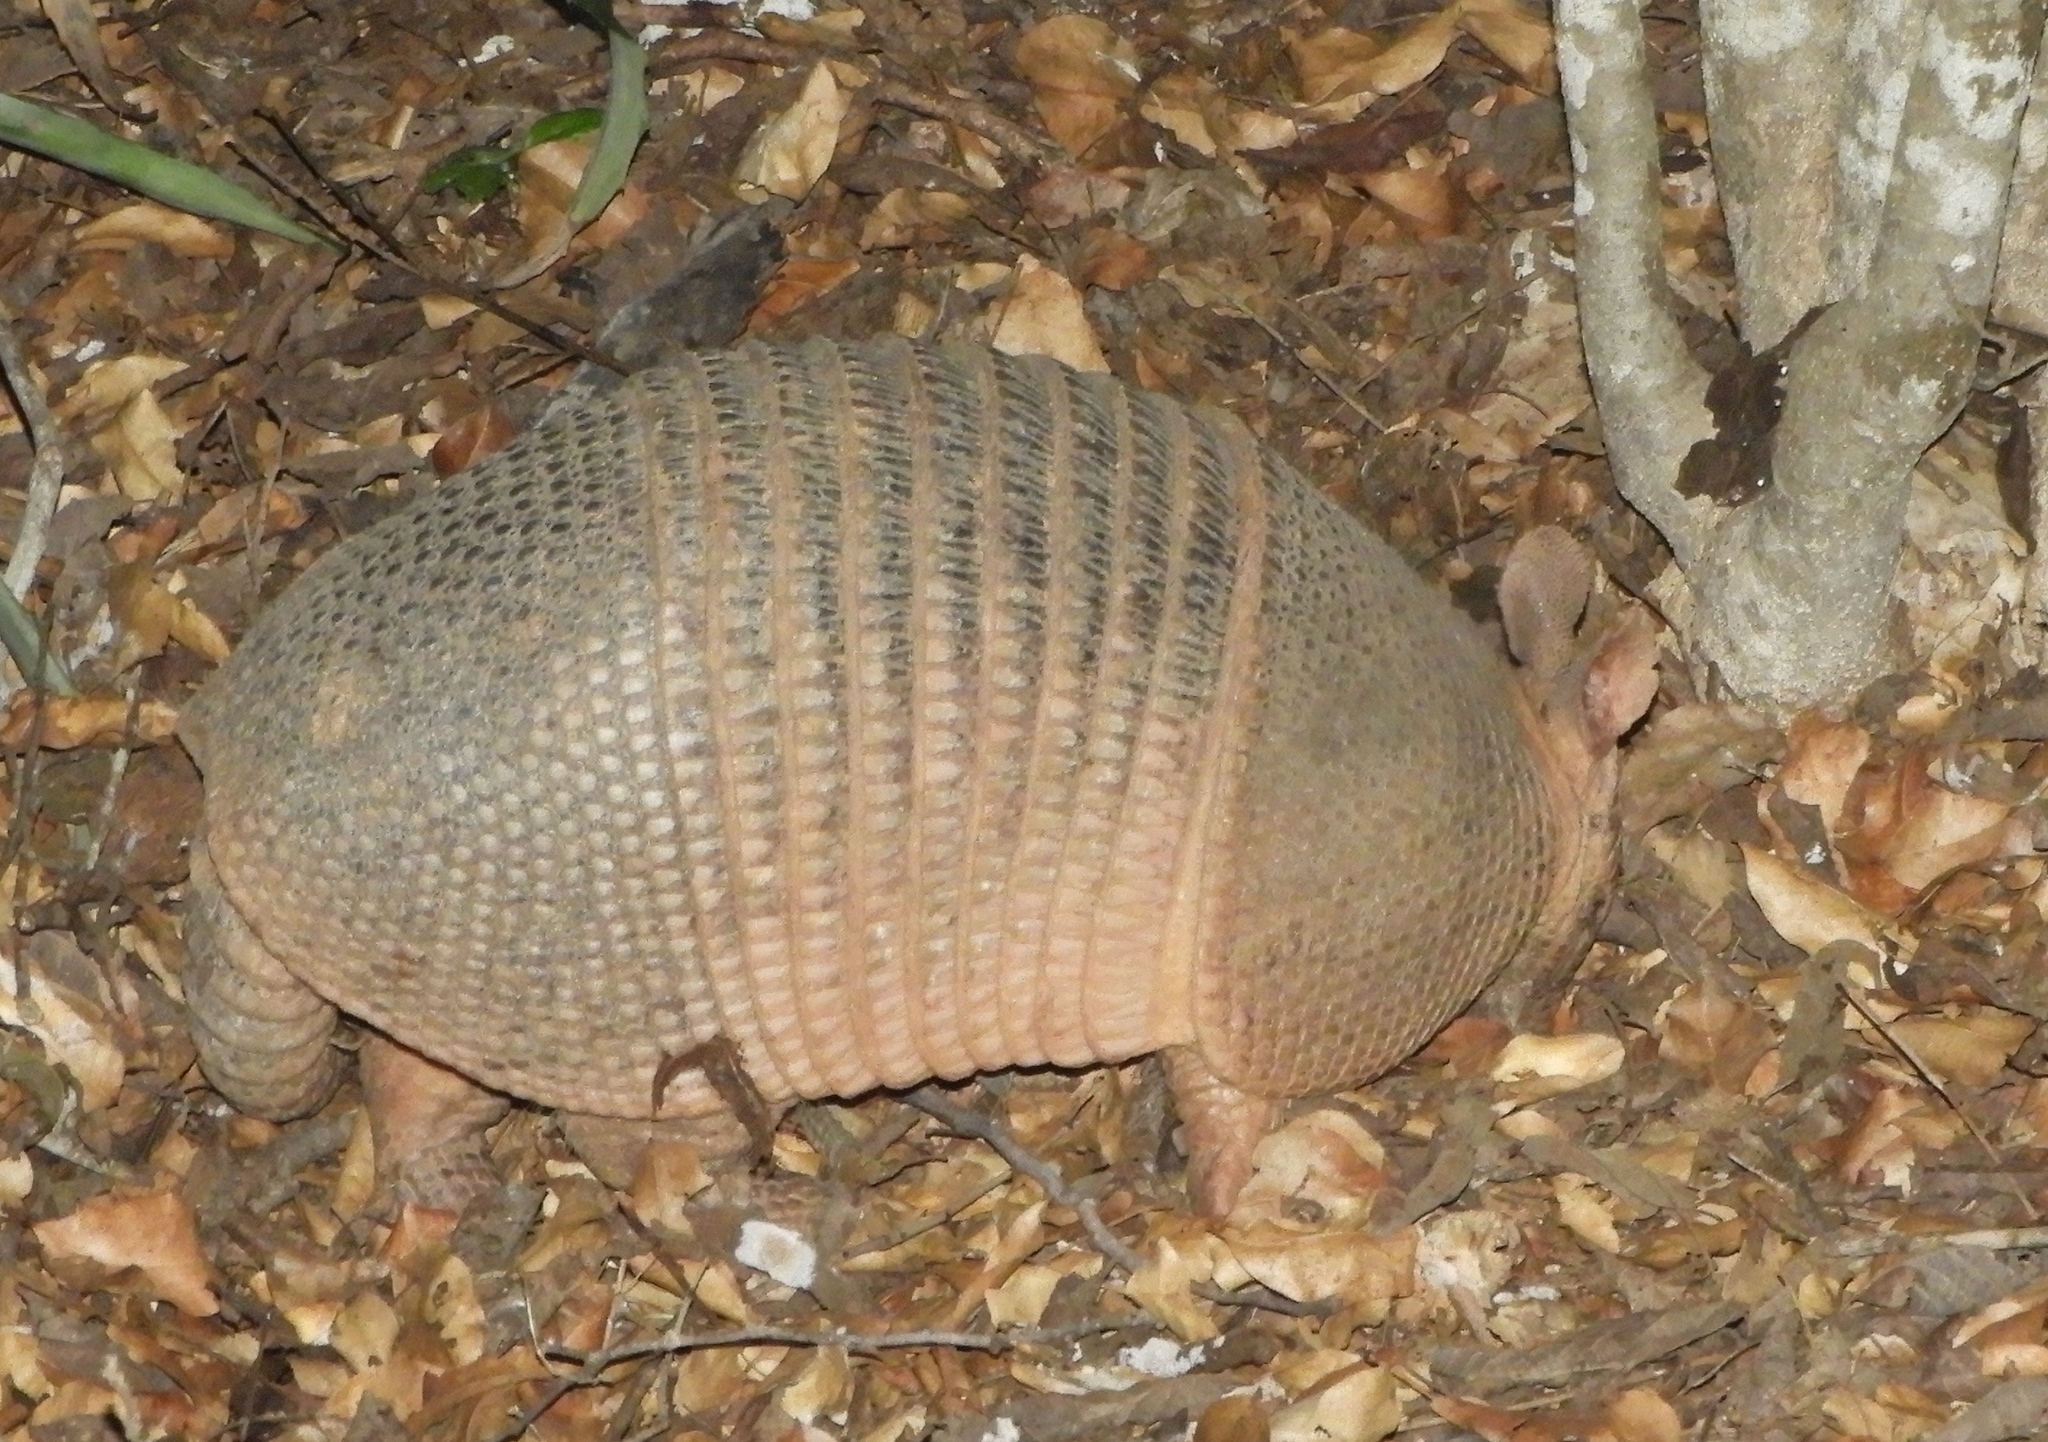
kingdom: Animalia
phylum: Chordata
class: Mammalia
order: Cingulata
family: Dasypodidae
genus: Dasypus
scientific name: Dasypus novemcinctus
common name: Nine-banded armadillo
